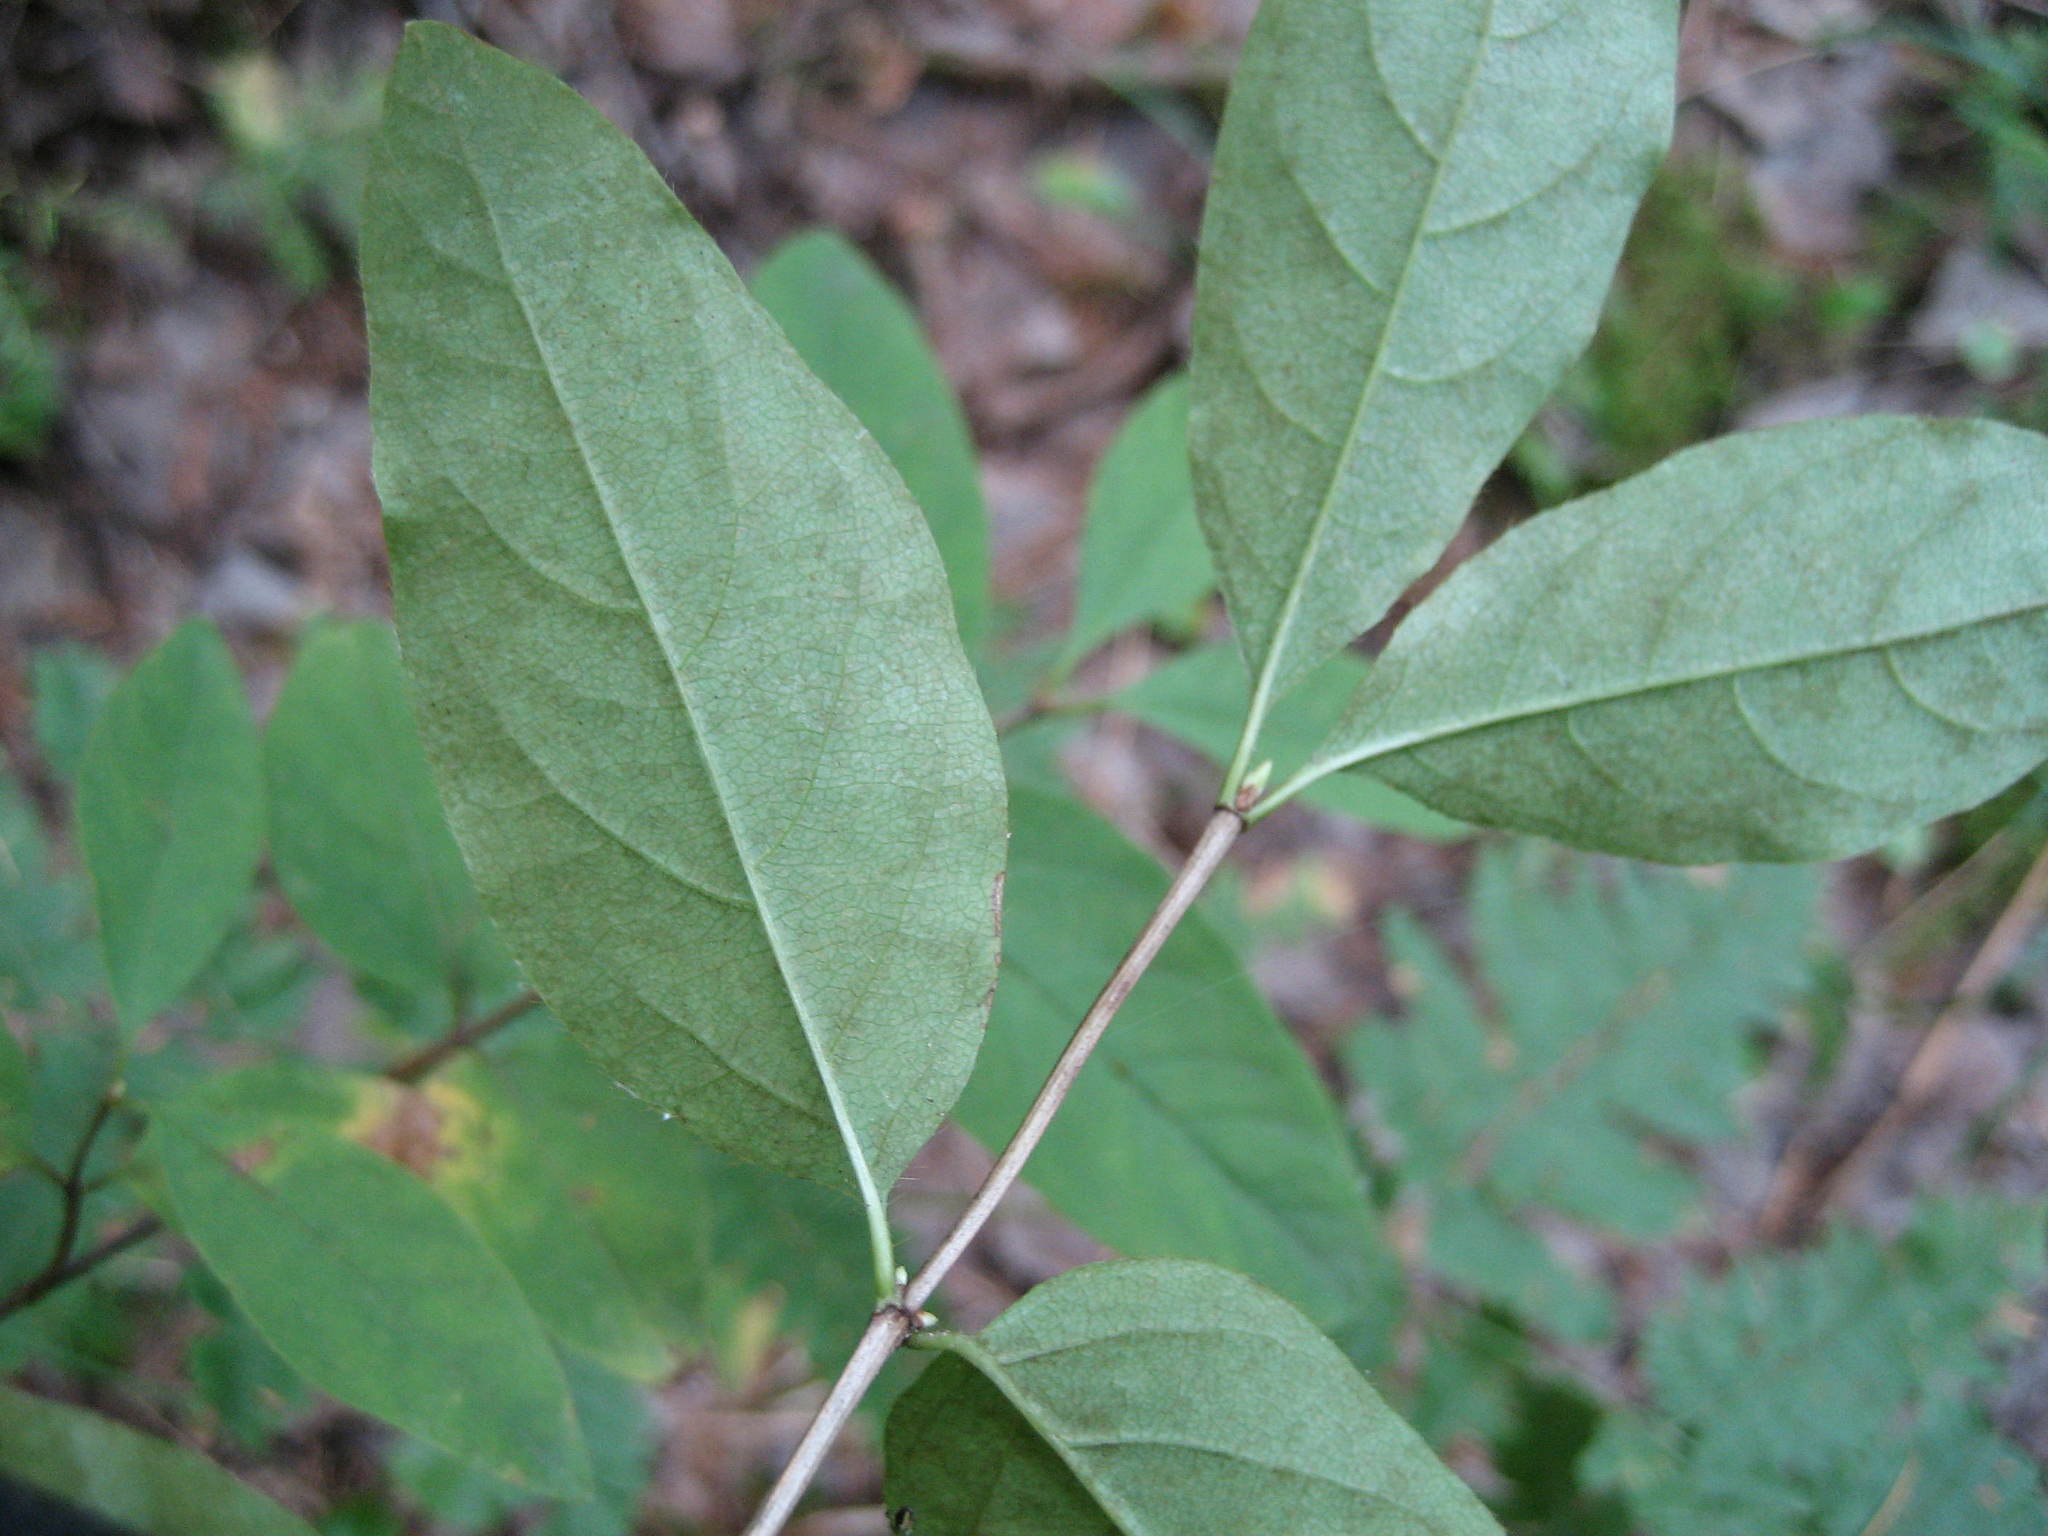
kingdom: Plantae
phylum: Tracheophyta
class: Magnoliopsida
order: Dipsacales
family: Caprifoliaceae
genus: Lonicera
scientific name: Lonicera canadensis
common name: American fly-honeysuckle
